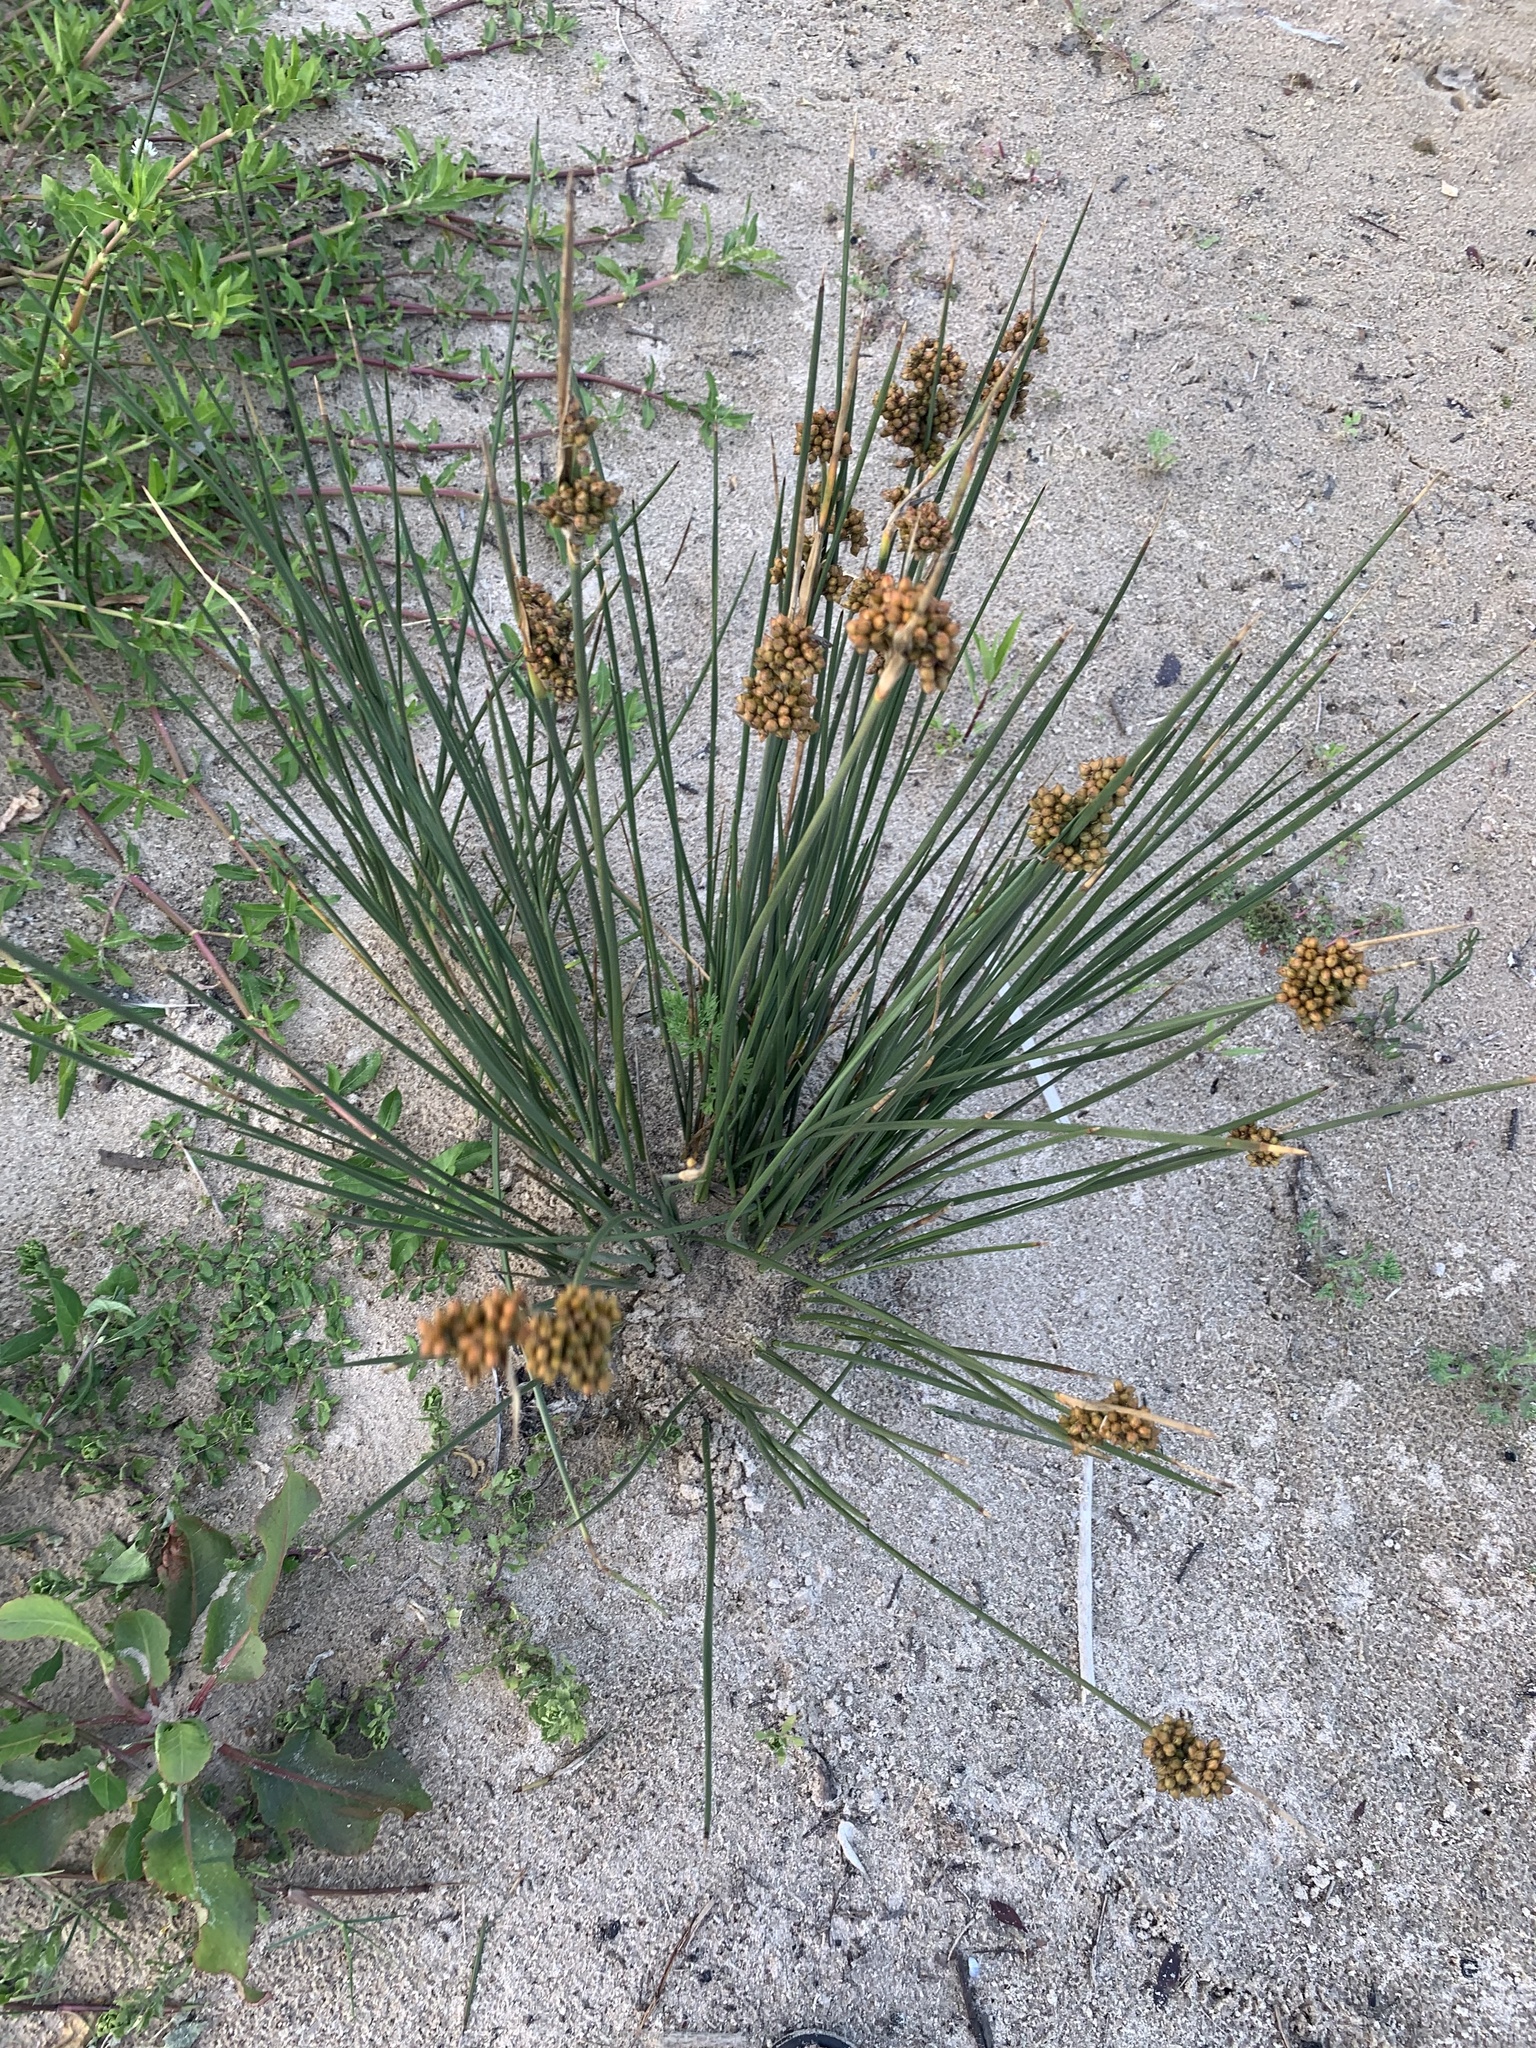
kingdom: Plantae
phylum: Tracheophyta
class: Liliopsida
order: Poales
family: Juncaceae
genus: Juncus
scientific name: Juncus acutus
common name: Sharp rush
